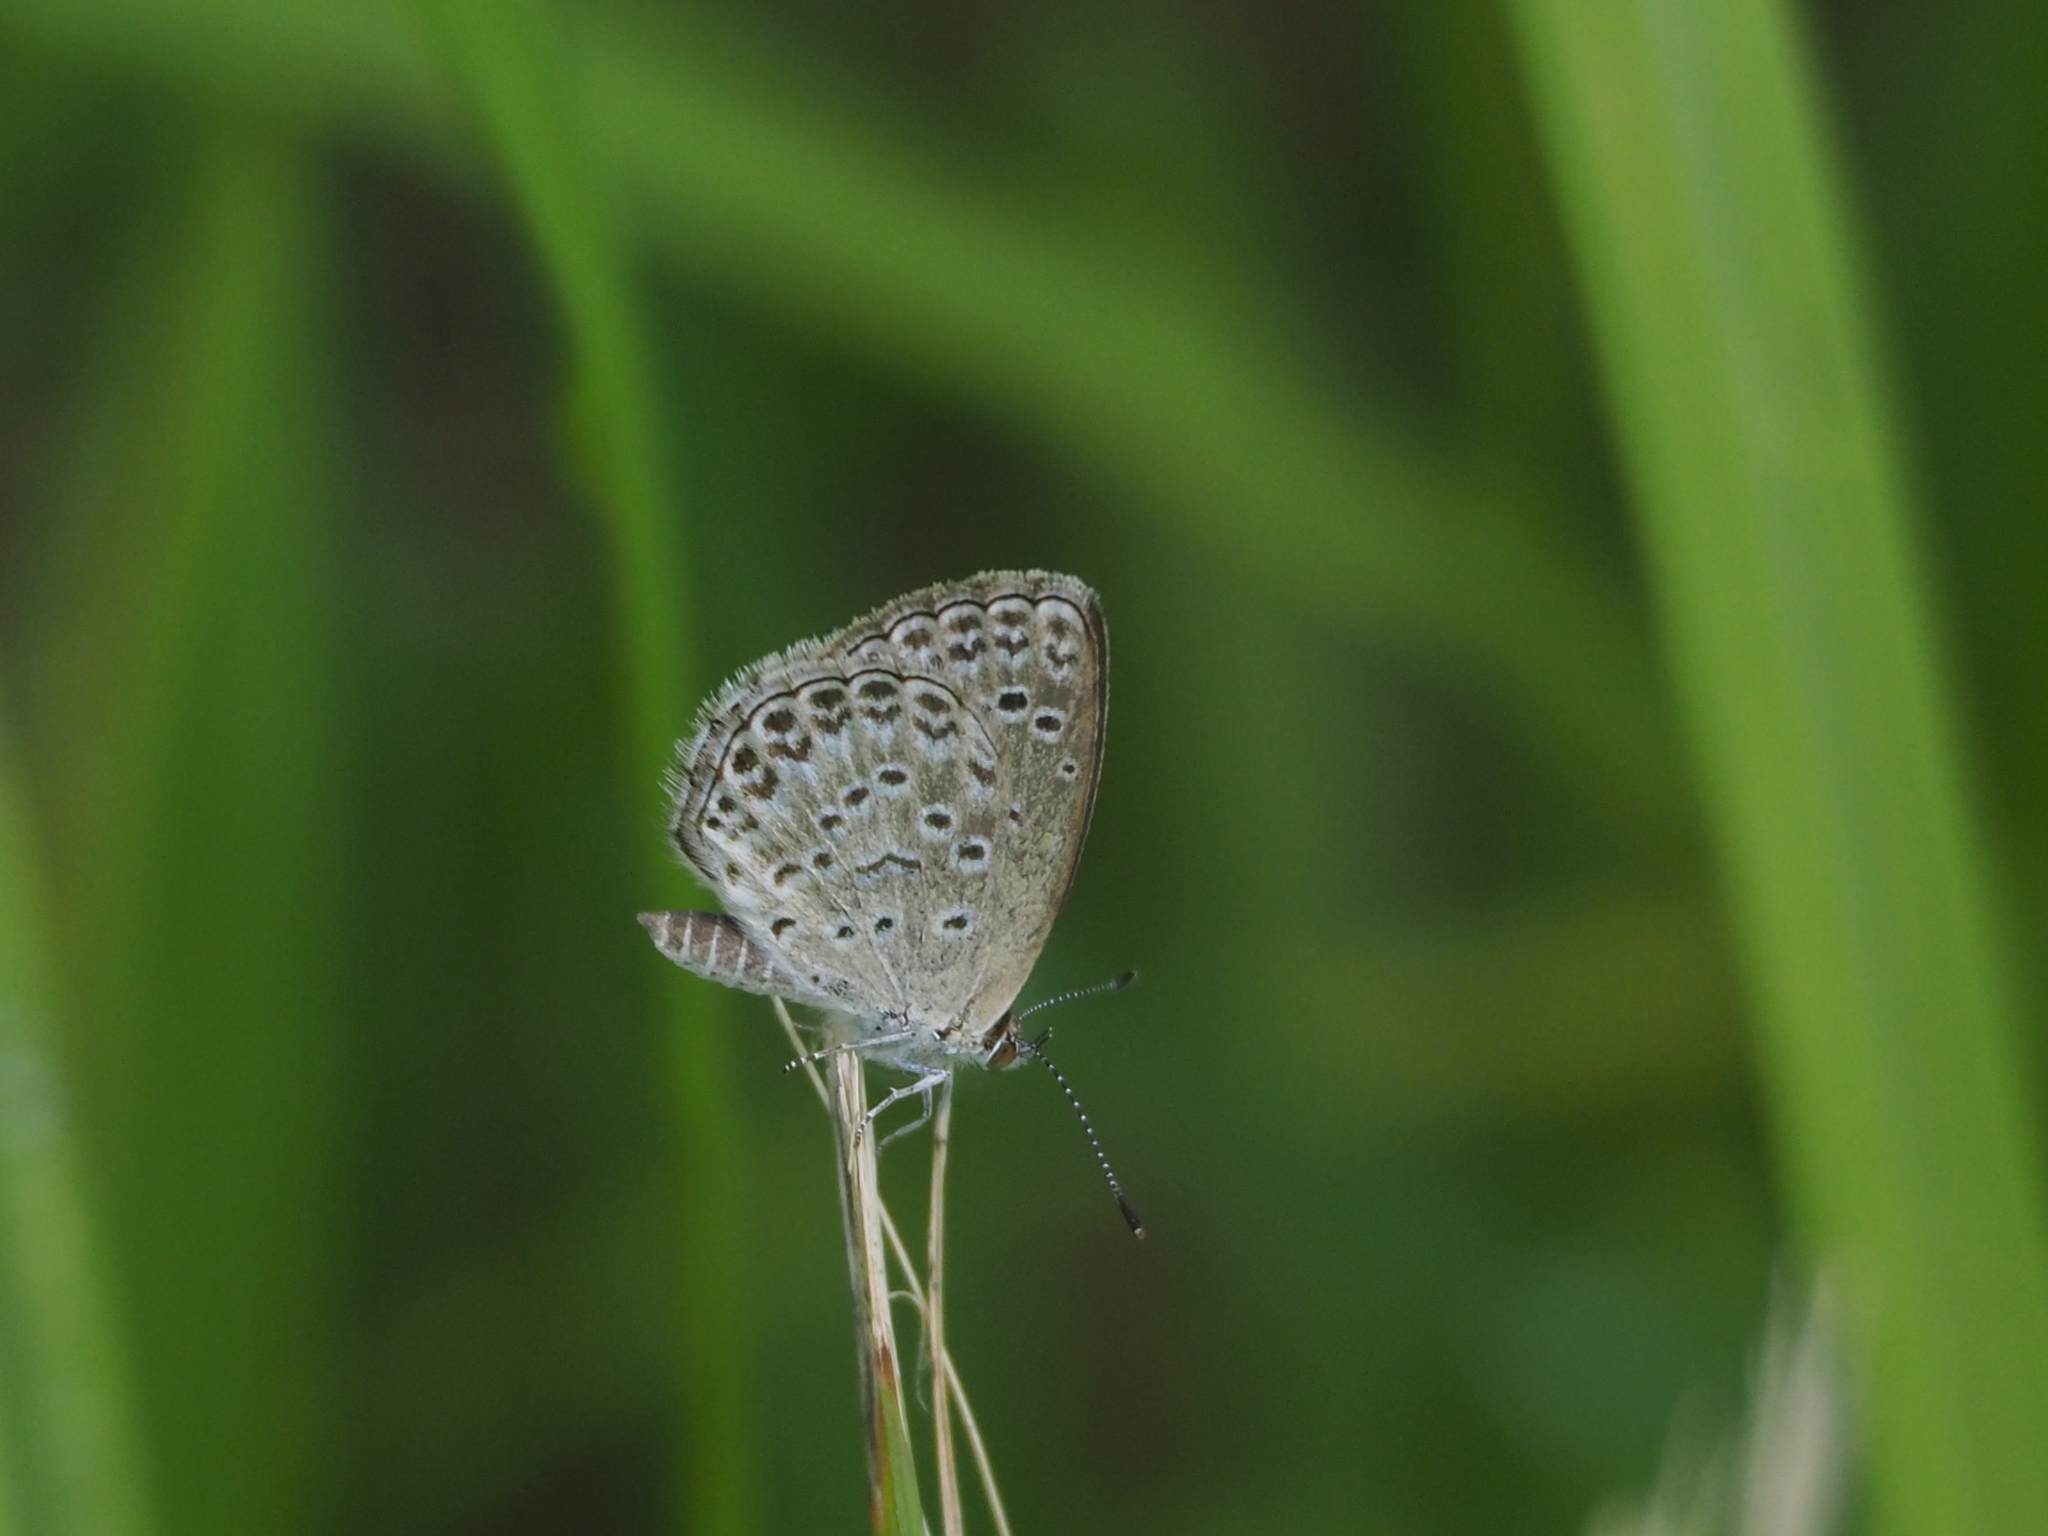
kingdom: Animalia
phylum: Arthropoda
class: Insecta
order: Lepidoptera
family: Lycaenidae
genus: Pseudozizeeria
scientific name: Pseudozizeeria maha
